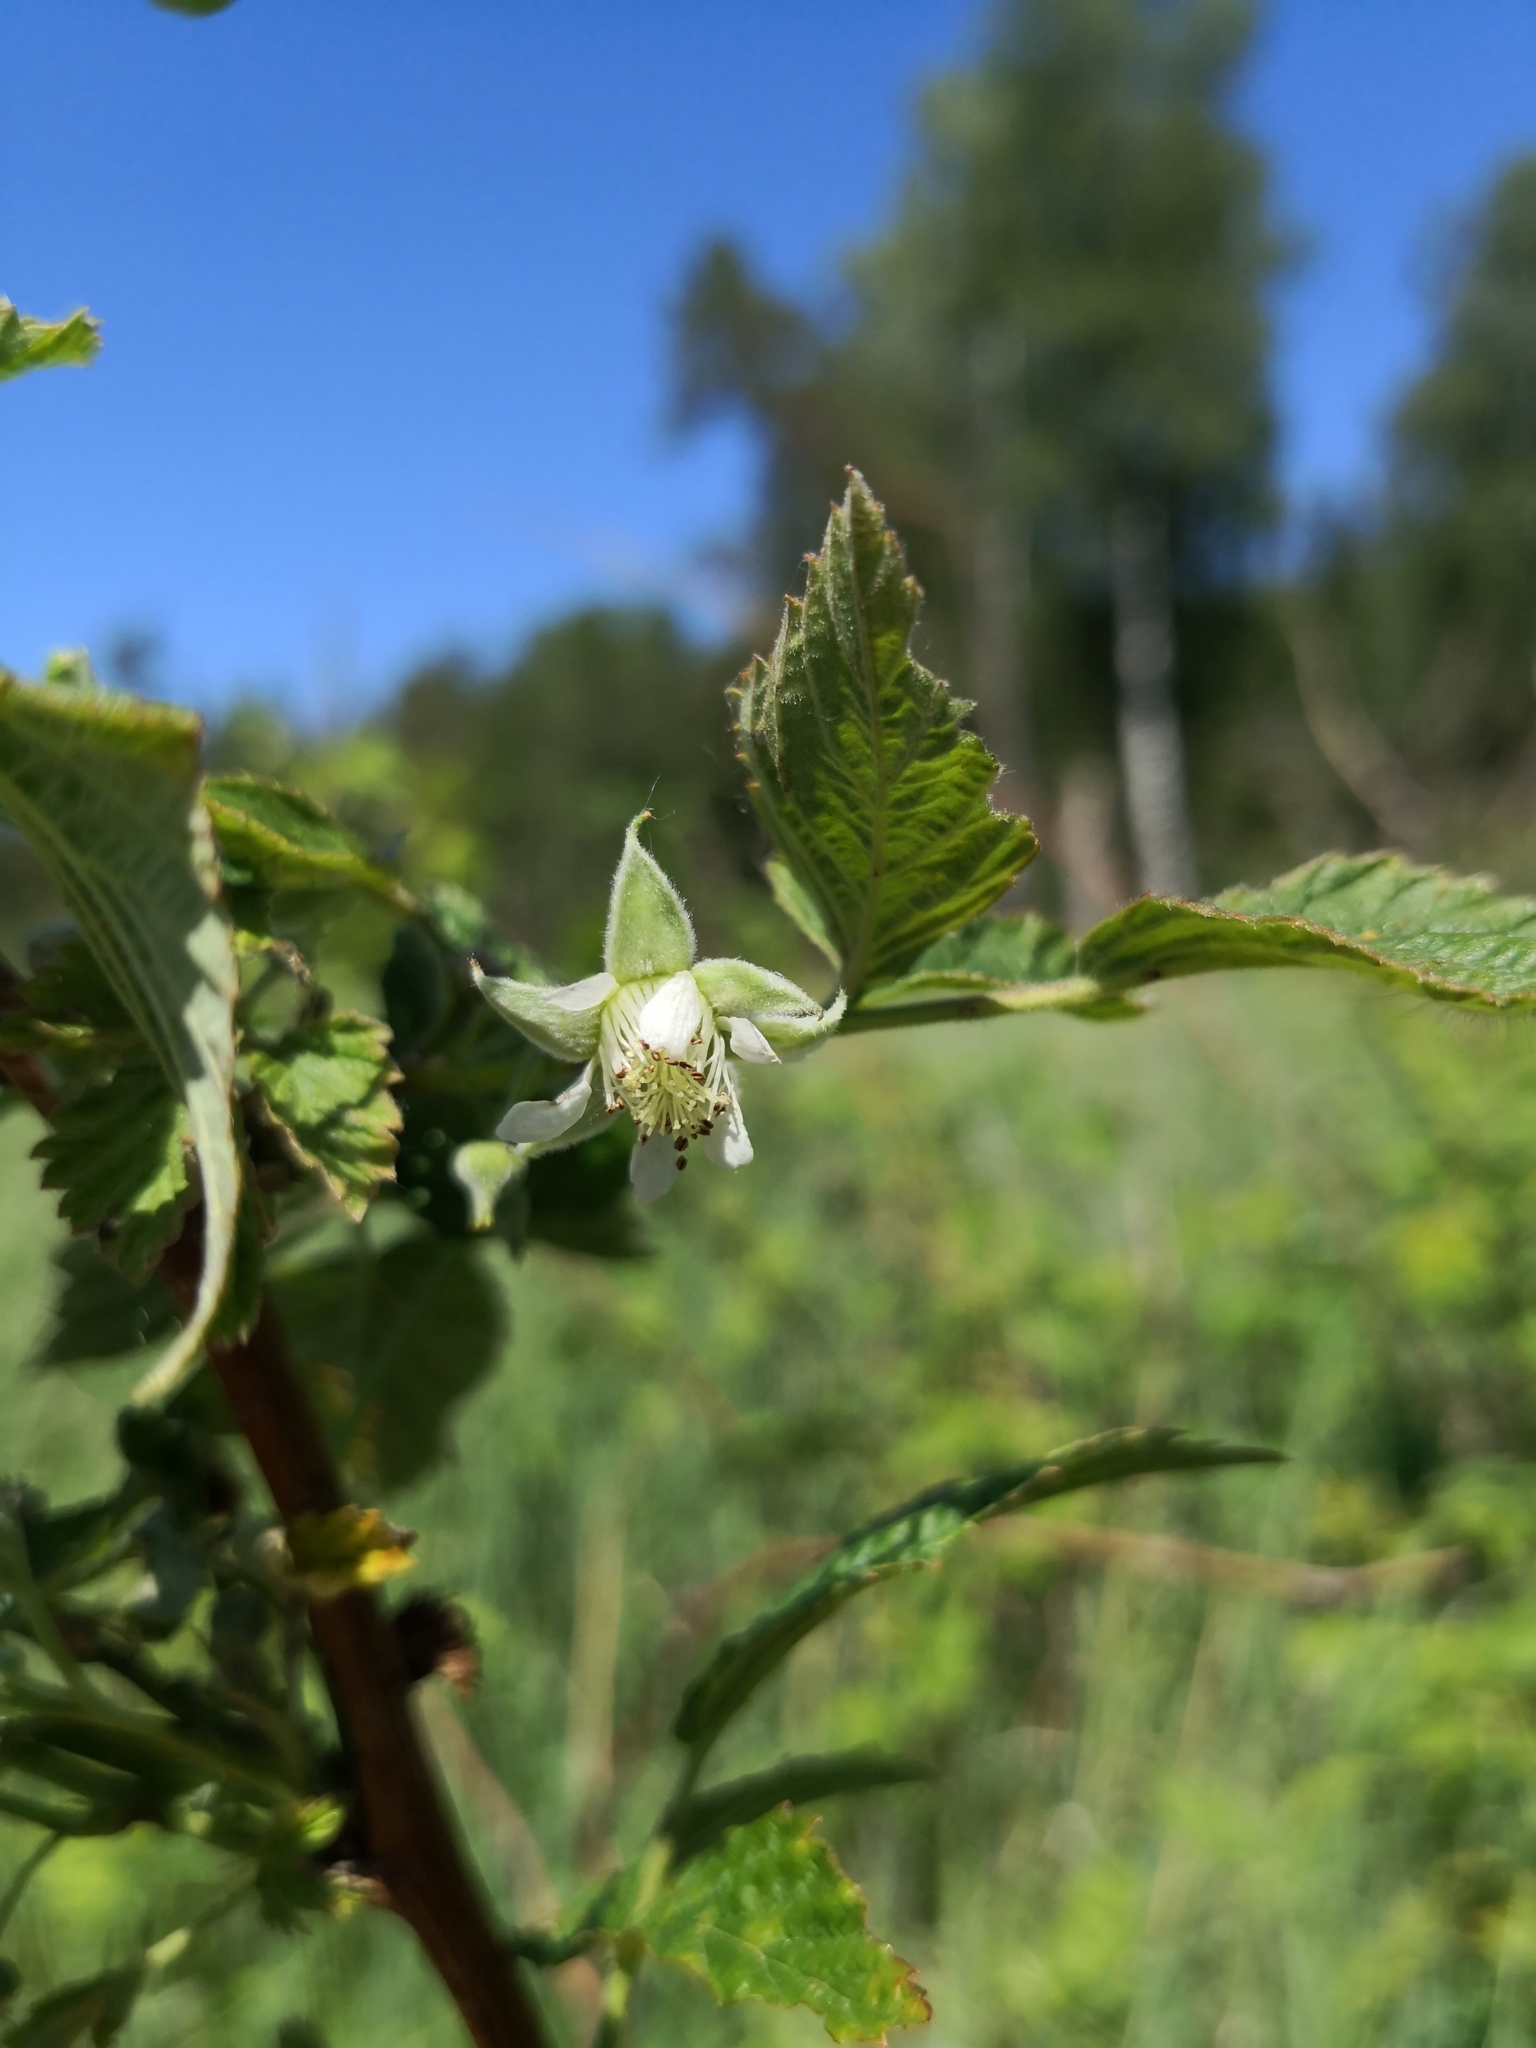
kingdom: Plantae
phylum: Tracheophyta
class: Magnoliopsida
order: Rosales
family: Rosaceae
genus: Rubus
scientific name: Rubus idaeus
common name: Raspberry
